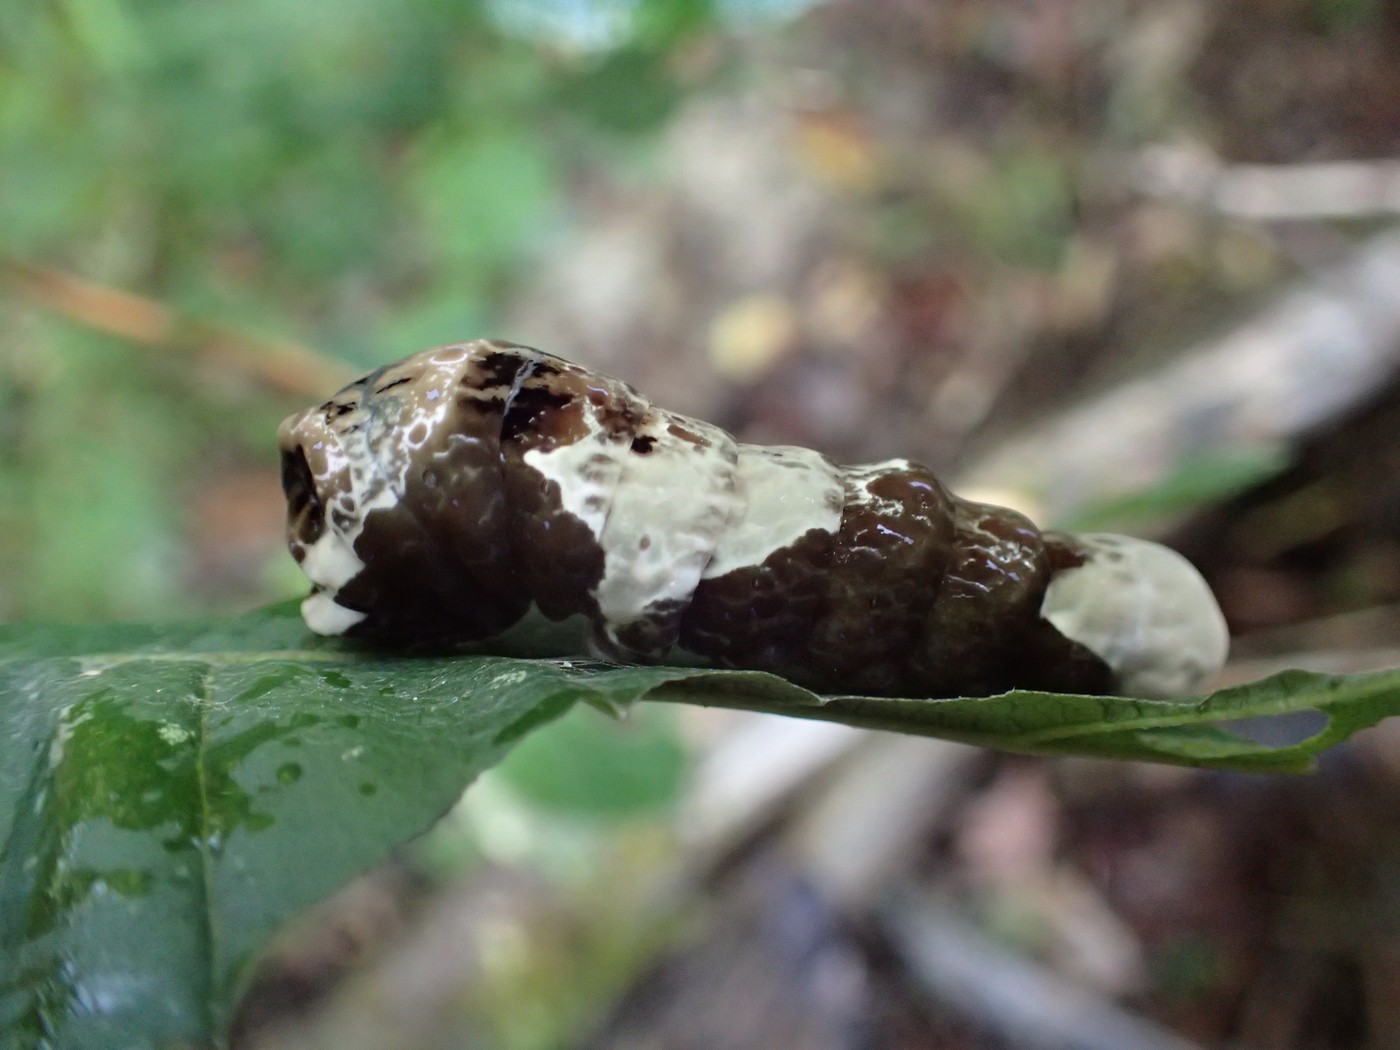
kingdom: Animalia
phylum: Arthropoda
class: Insecta
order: Lepidoptera
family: Papilionidae
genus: Papilio
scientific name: Papilio cresphontes
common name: Giant swallowtail
